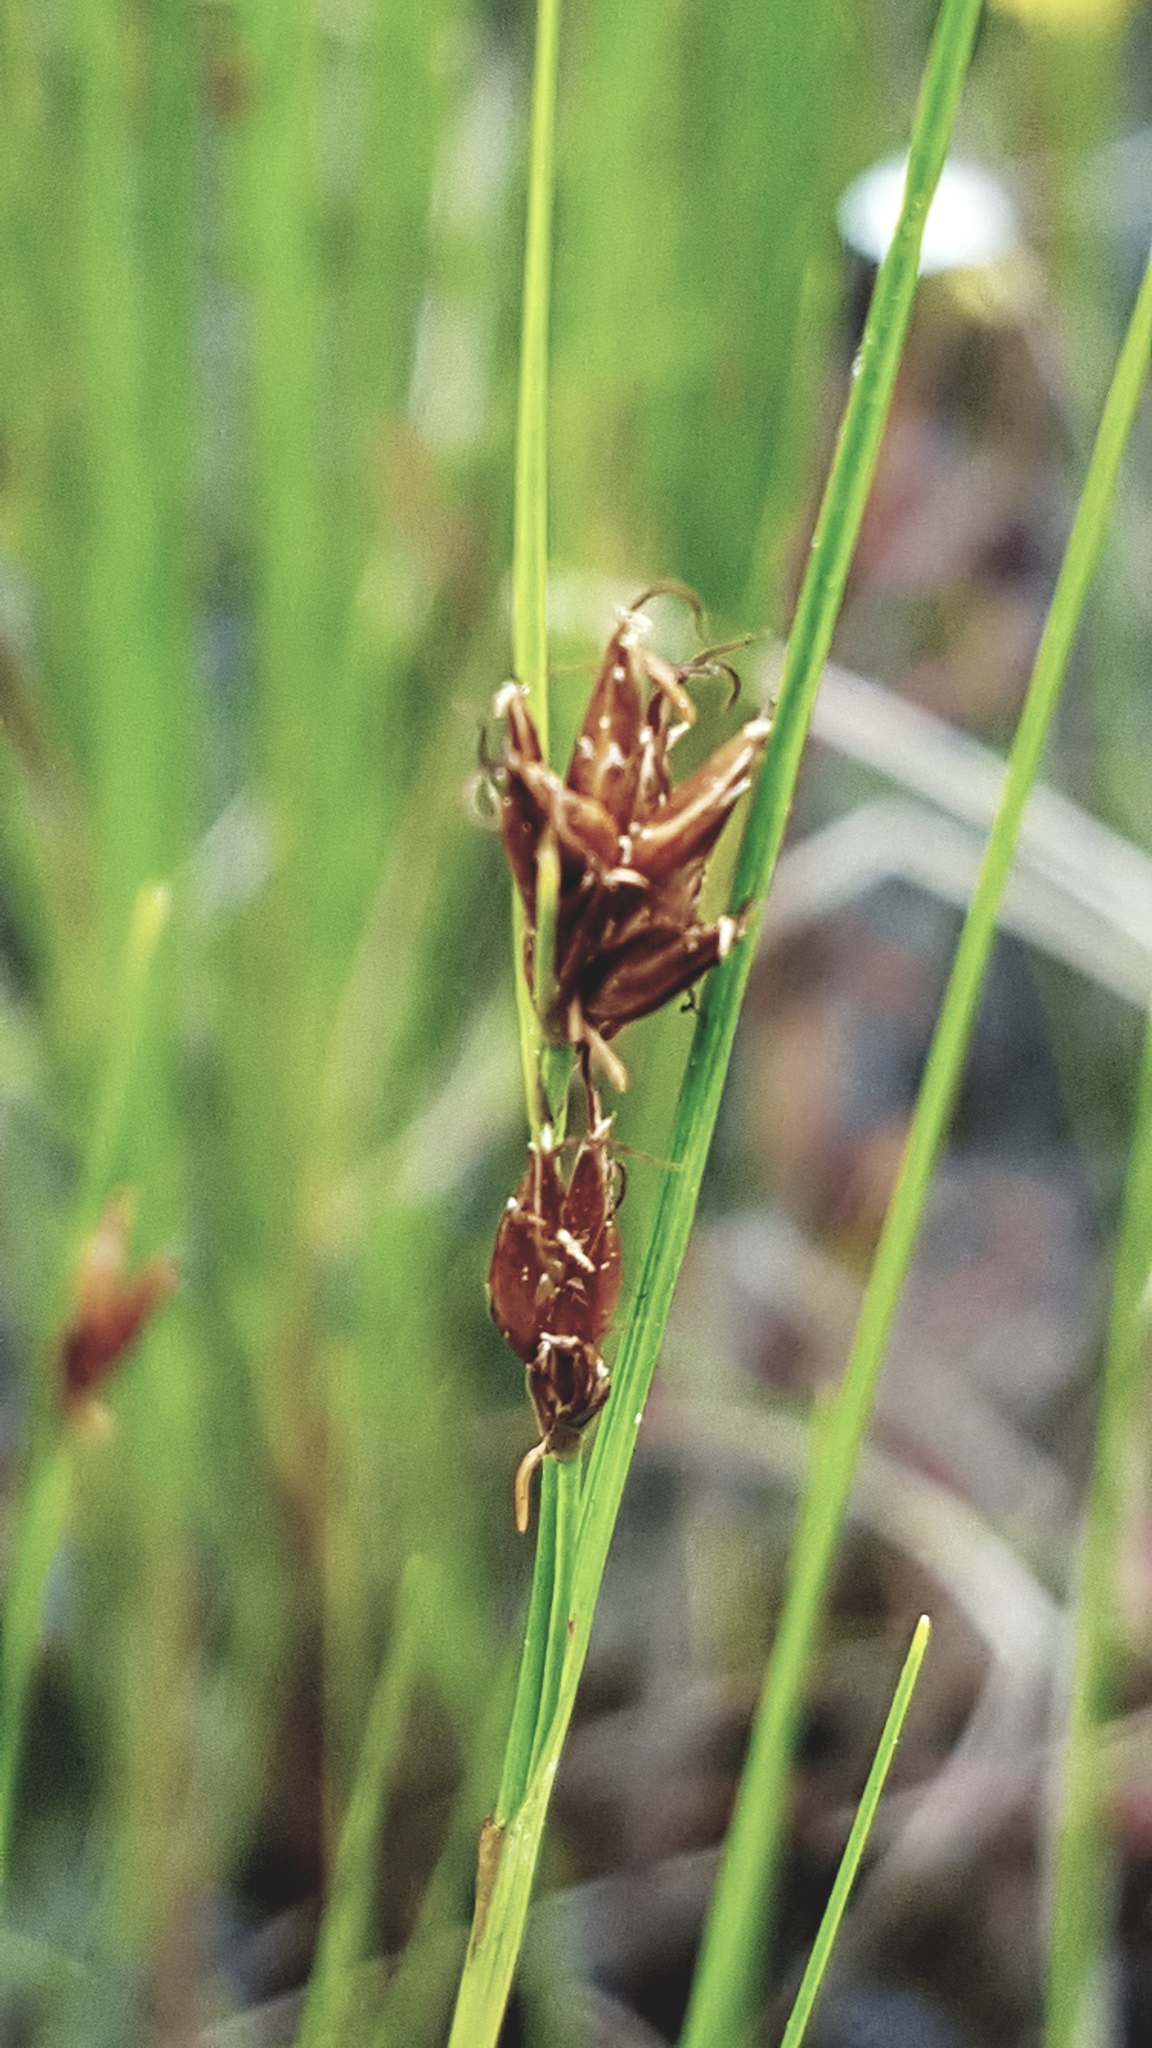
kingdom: Plantae
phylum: Tracheophyta
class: Liliopsida
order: Poales
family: Cyperaceae
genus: Rhynchospora
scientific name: Rhynchospora fusca
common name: Brown beak-sedge
